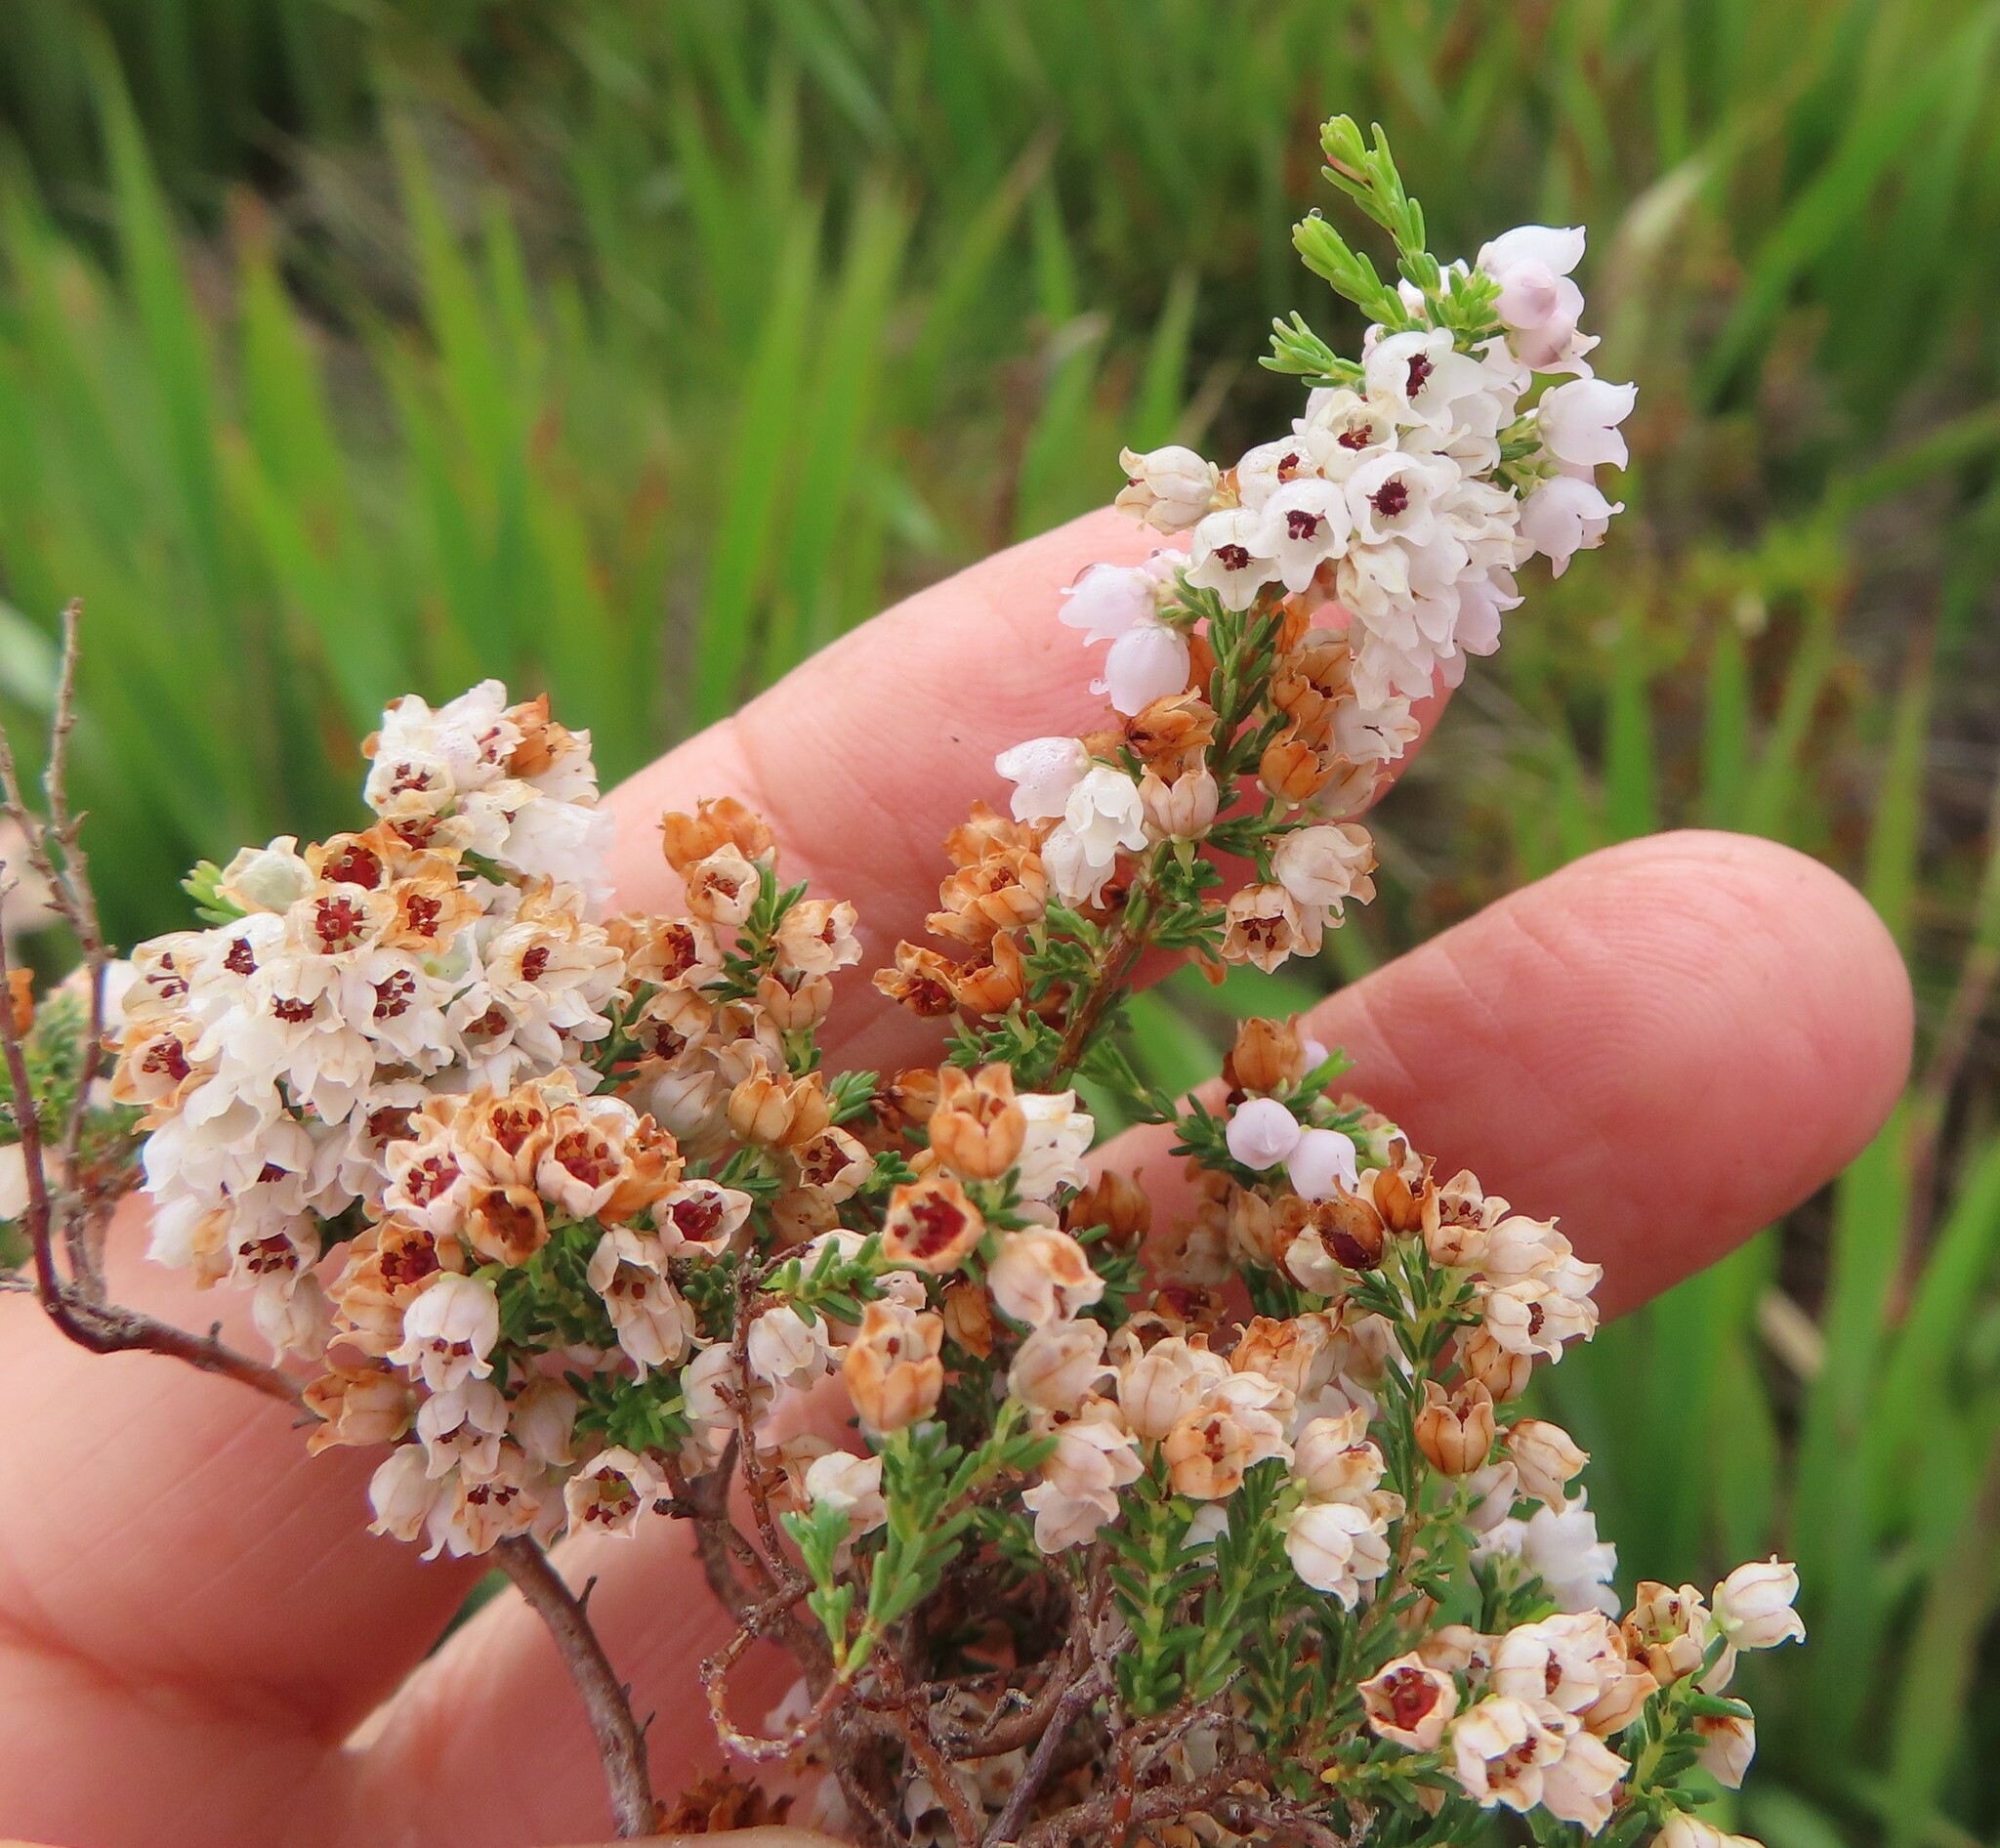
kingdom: Plantae
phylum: Tracheophyta
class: Magnoliopsida
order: Ericales
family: Ericaceae
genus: Erica
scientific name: Erica quadrangularis
